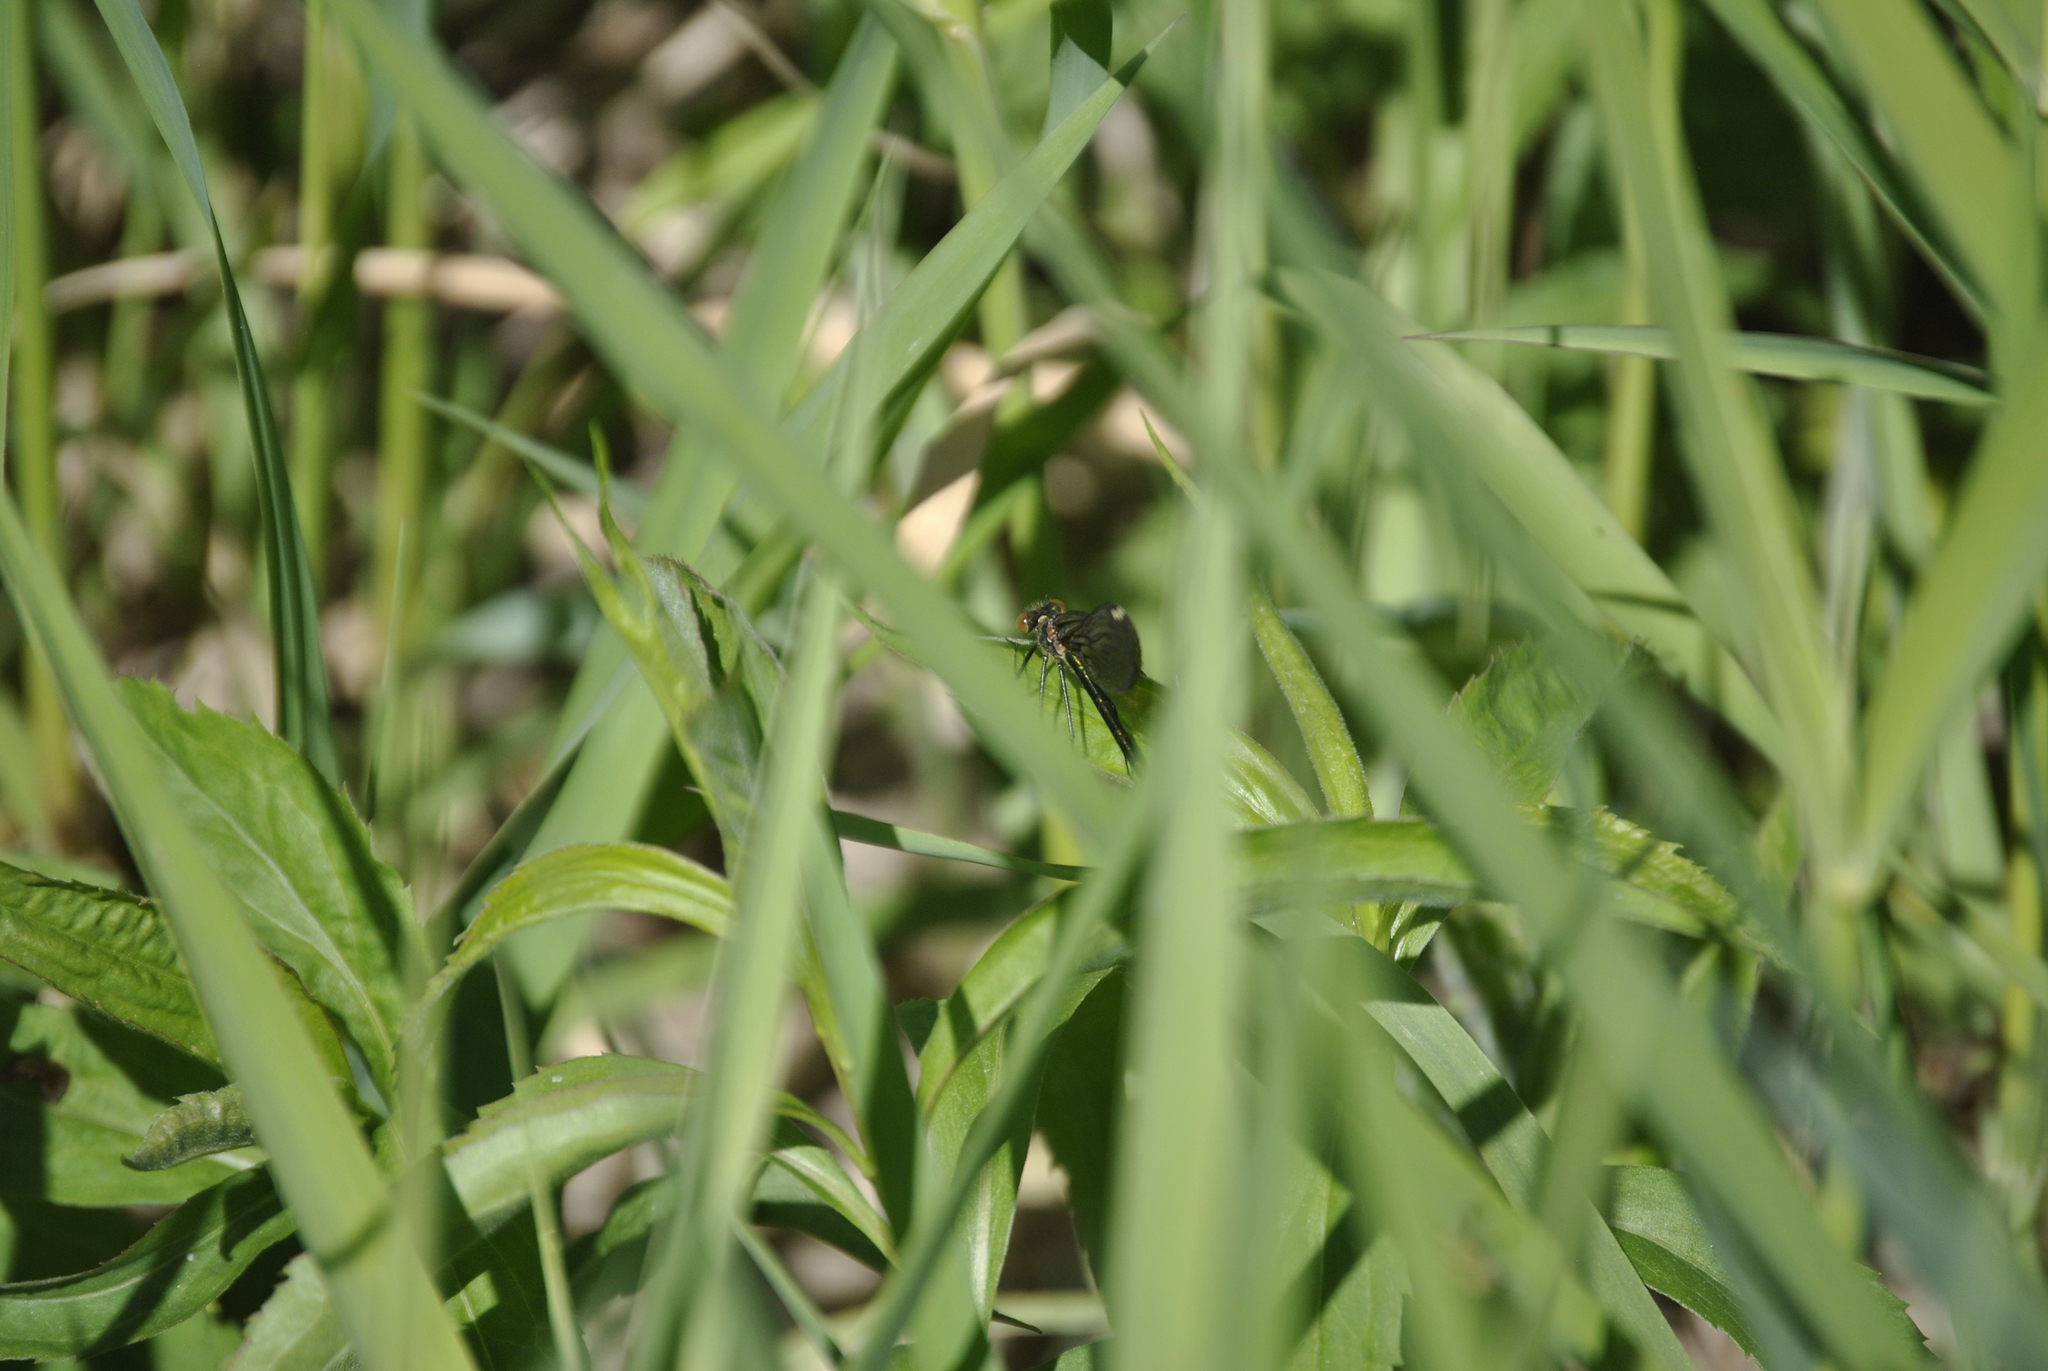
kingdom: Animalia
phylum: Arthropoda
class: Insecta
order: Odonata
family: Calopterygidae
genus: Calopteryx
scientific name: Calopteryx maculata
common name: Ebony jewelwing
